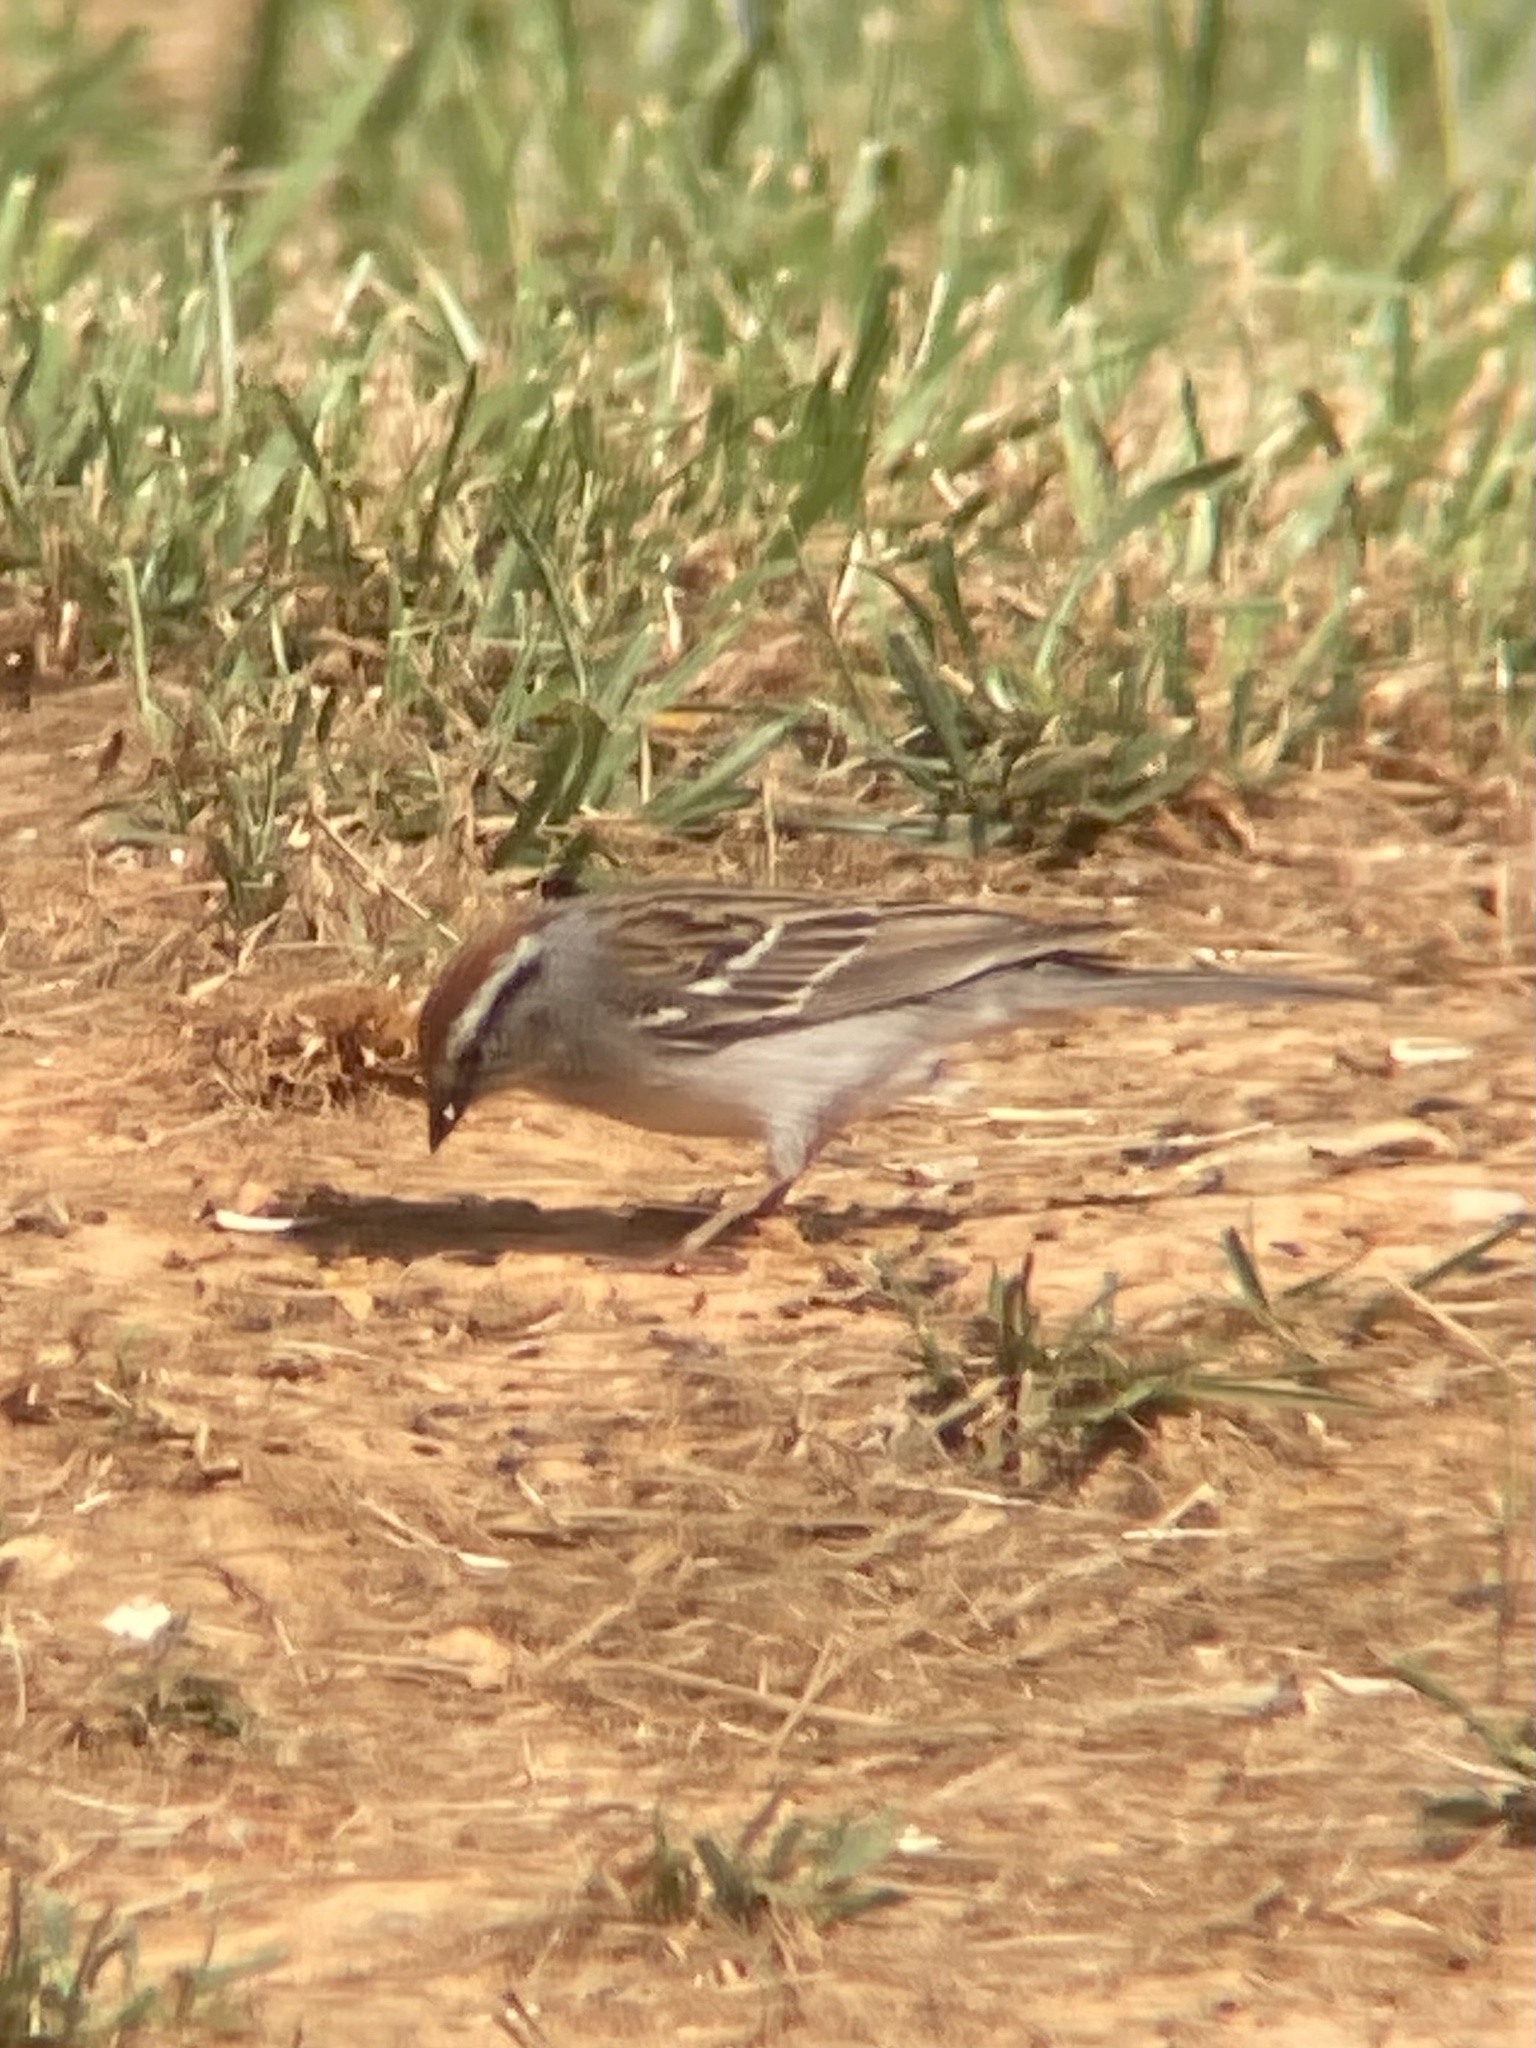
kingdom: Animalia
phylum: Chordata
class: Aves
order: Passeriformes
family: Passerellidae
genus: Spizella
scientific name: Spizella passerina
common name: Chipping sparrow
